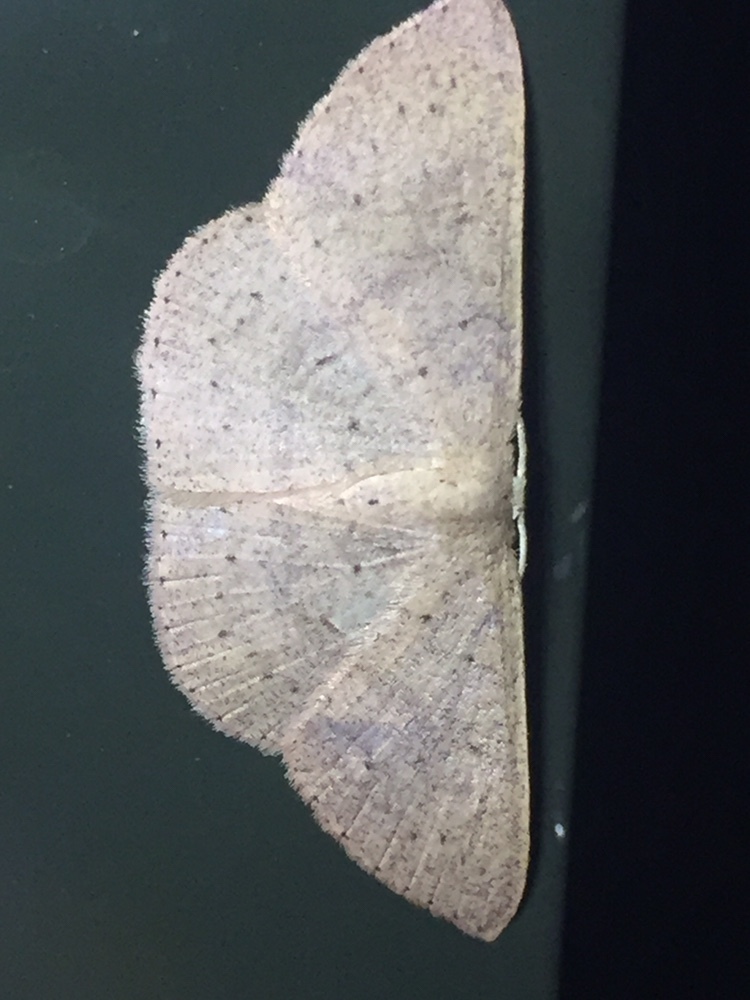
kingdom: Animalia
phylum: Arthropoda
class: Insecta
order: Lepidoptera
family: Geometridae
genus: Cyclophora
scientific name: Cyclophora obstataria
